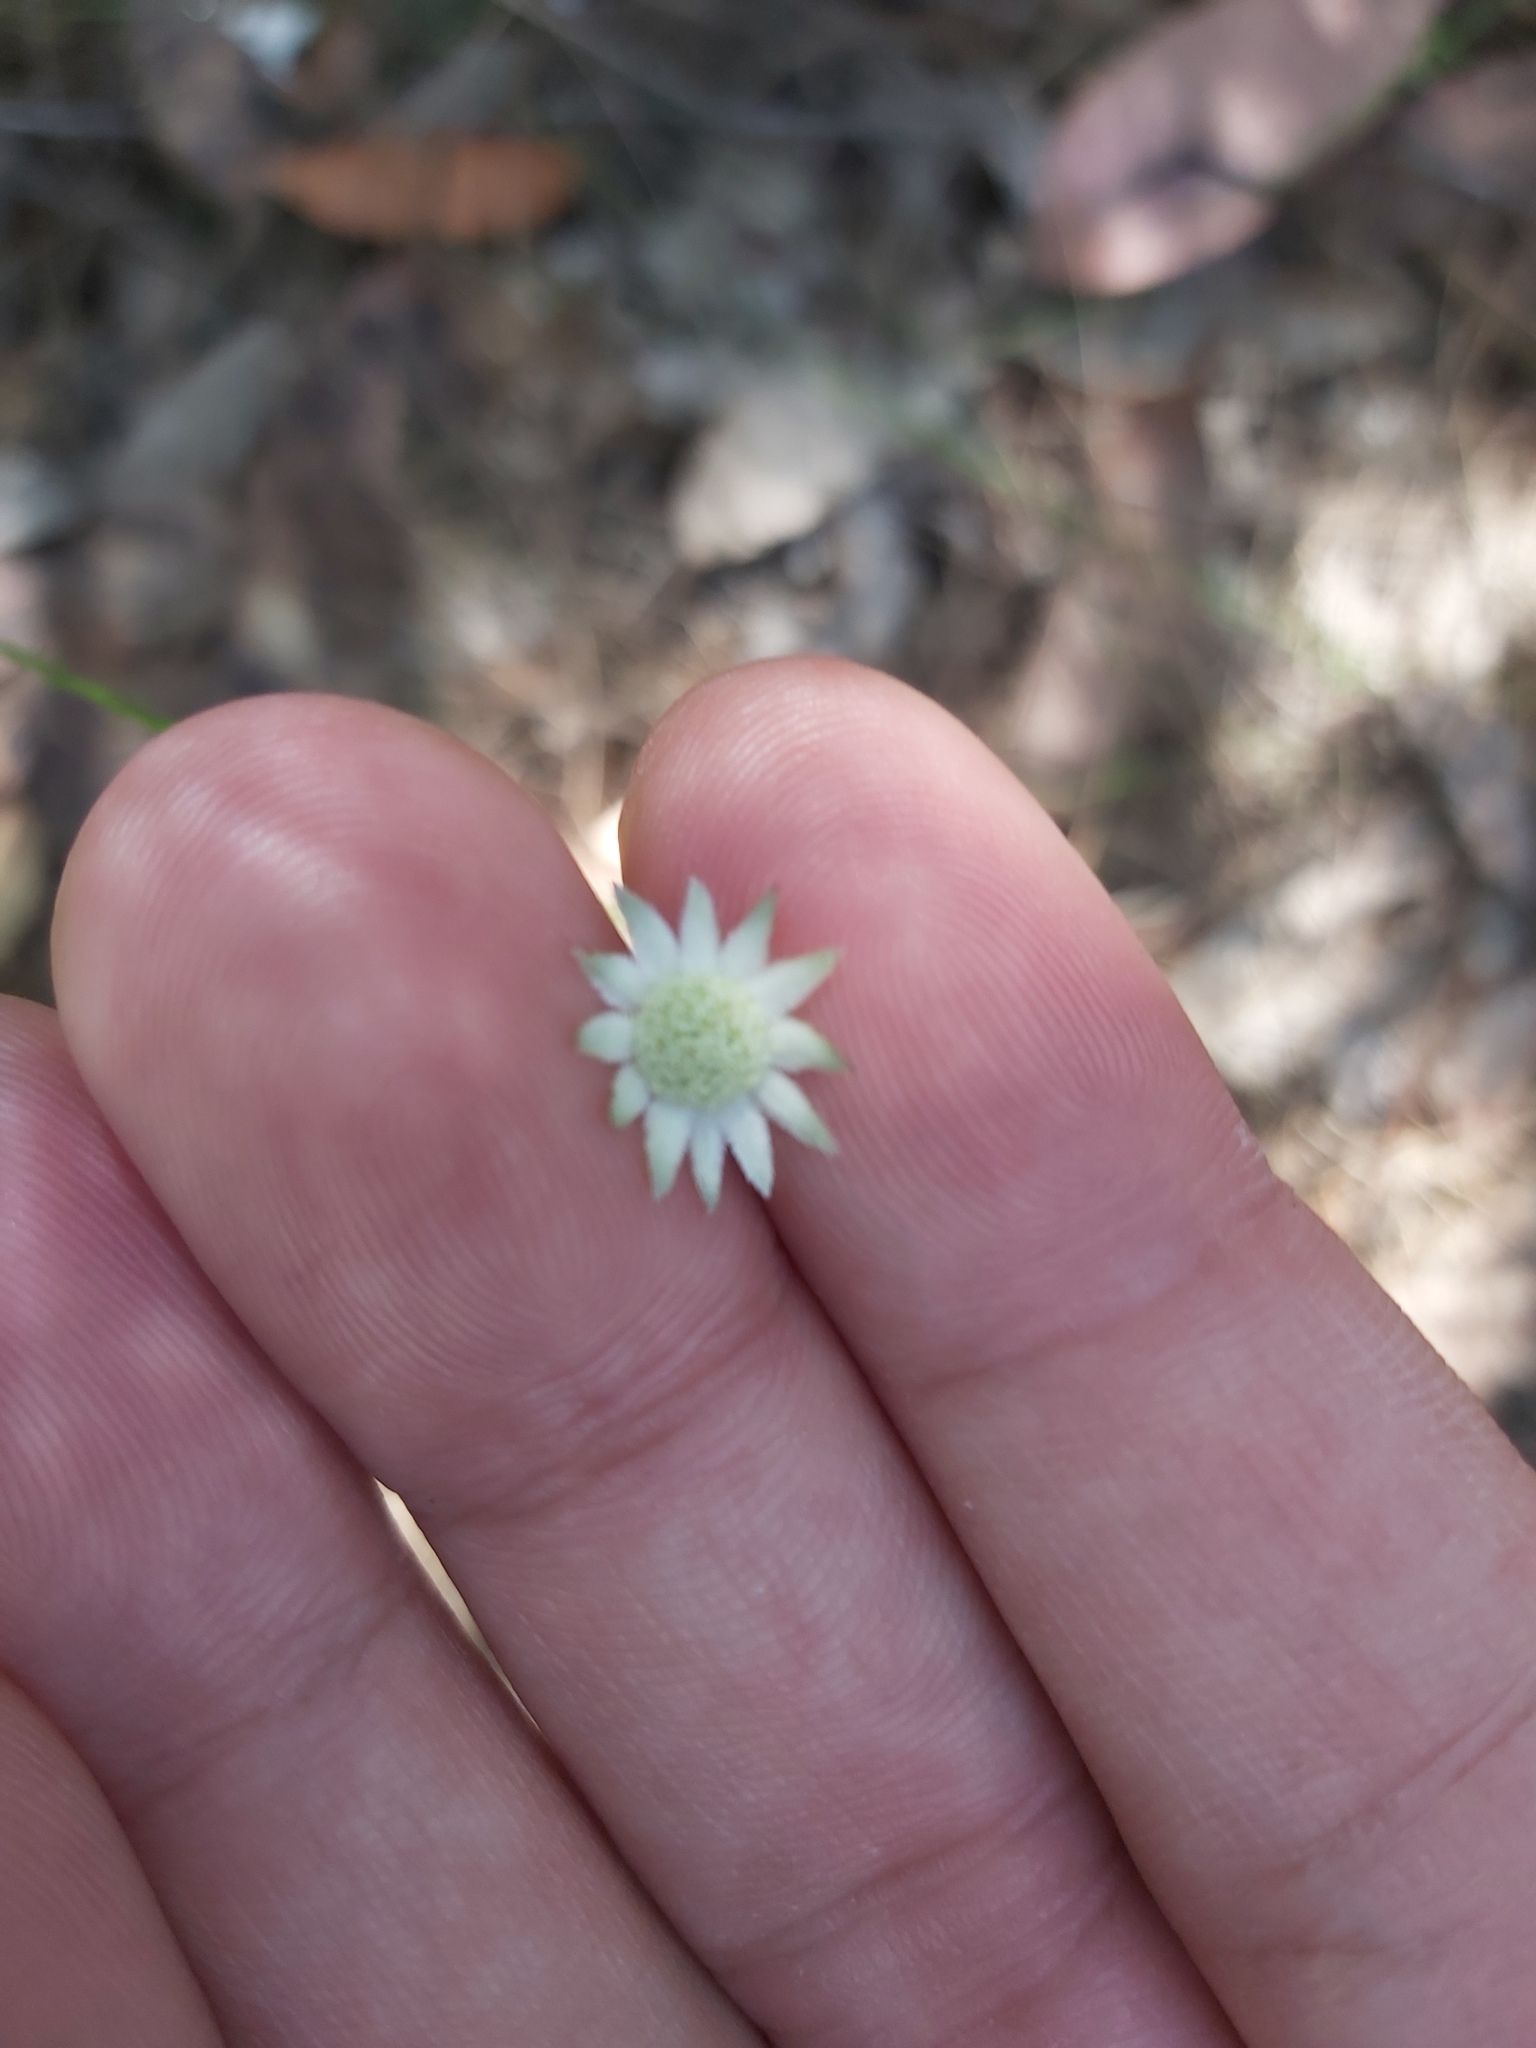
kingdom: Plantae
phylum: Tracheophyta
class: Magnoliopsida
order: Apiales
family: Apiaceae
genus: Actinotus
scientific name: Actinotus minor
